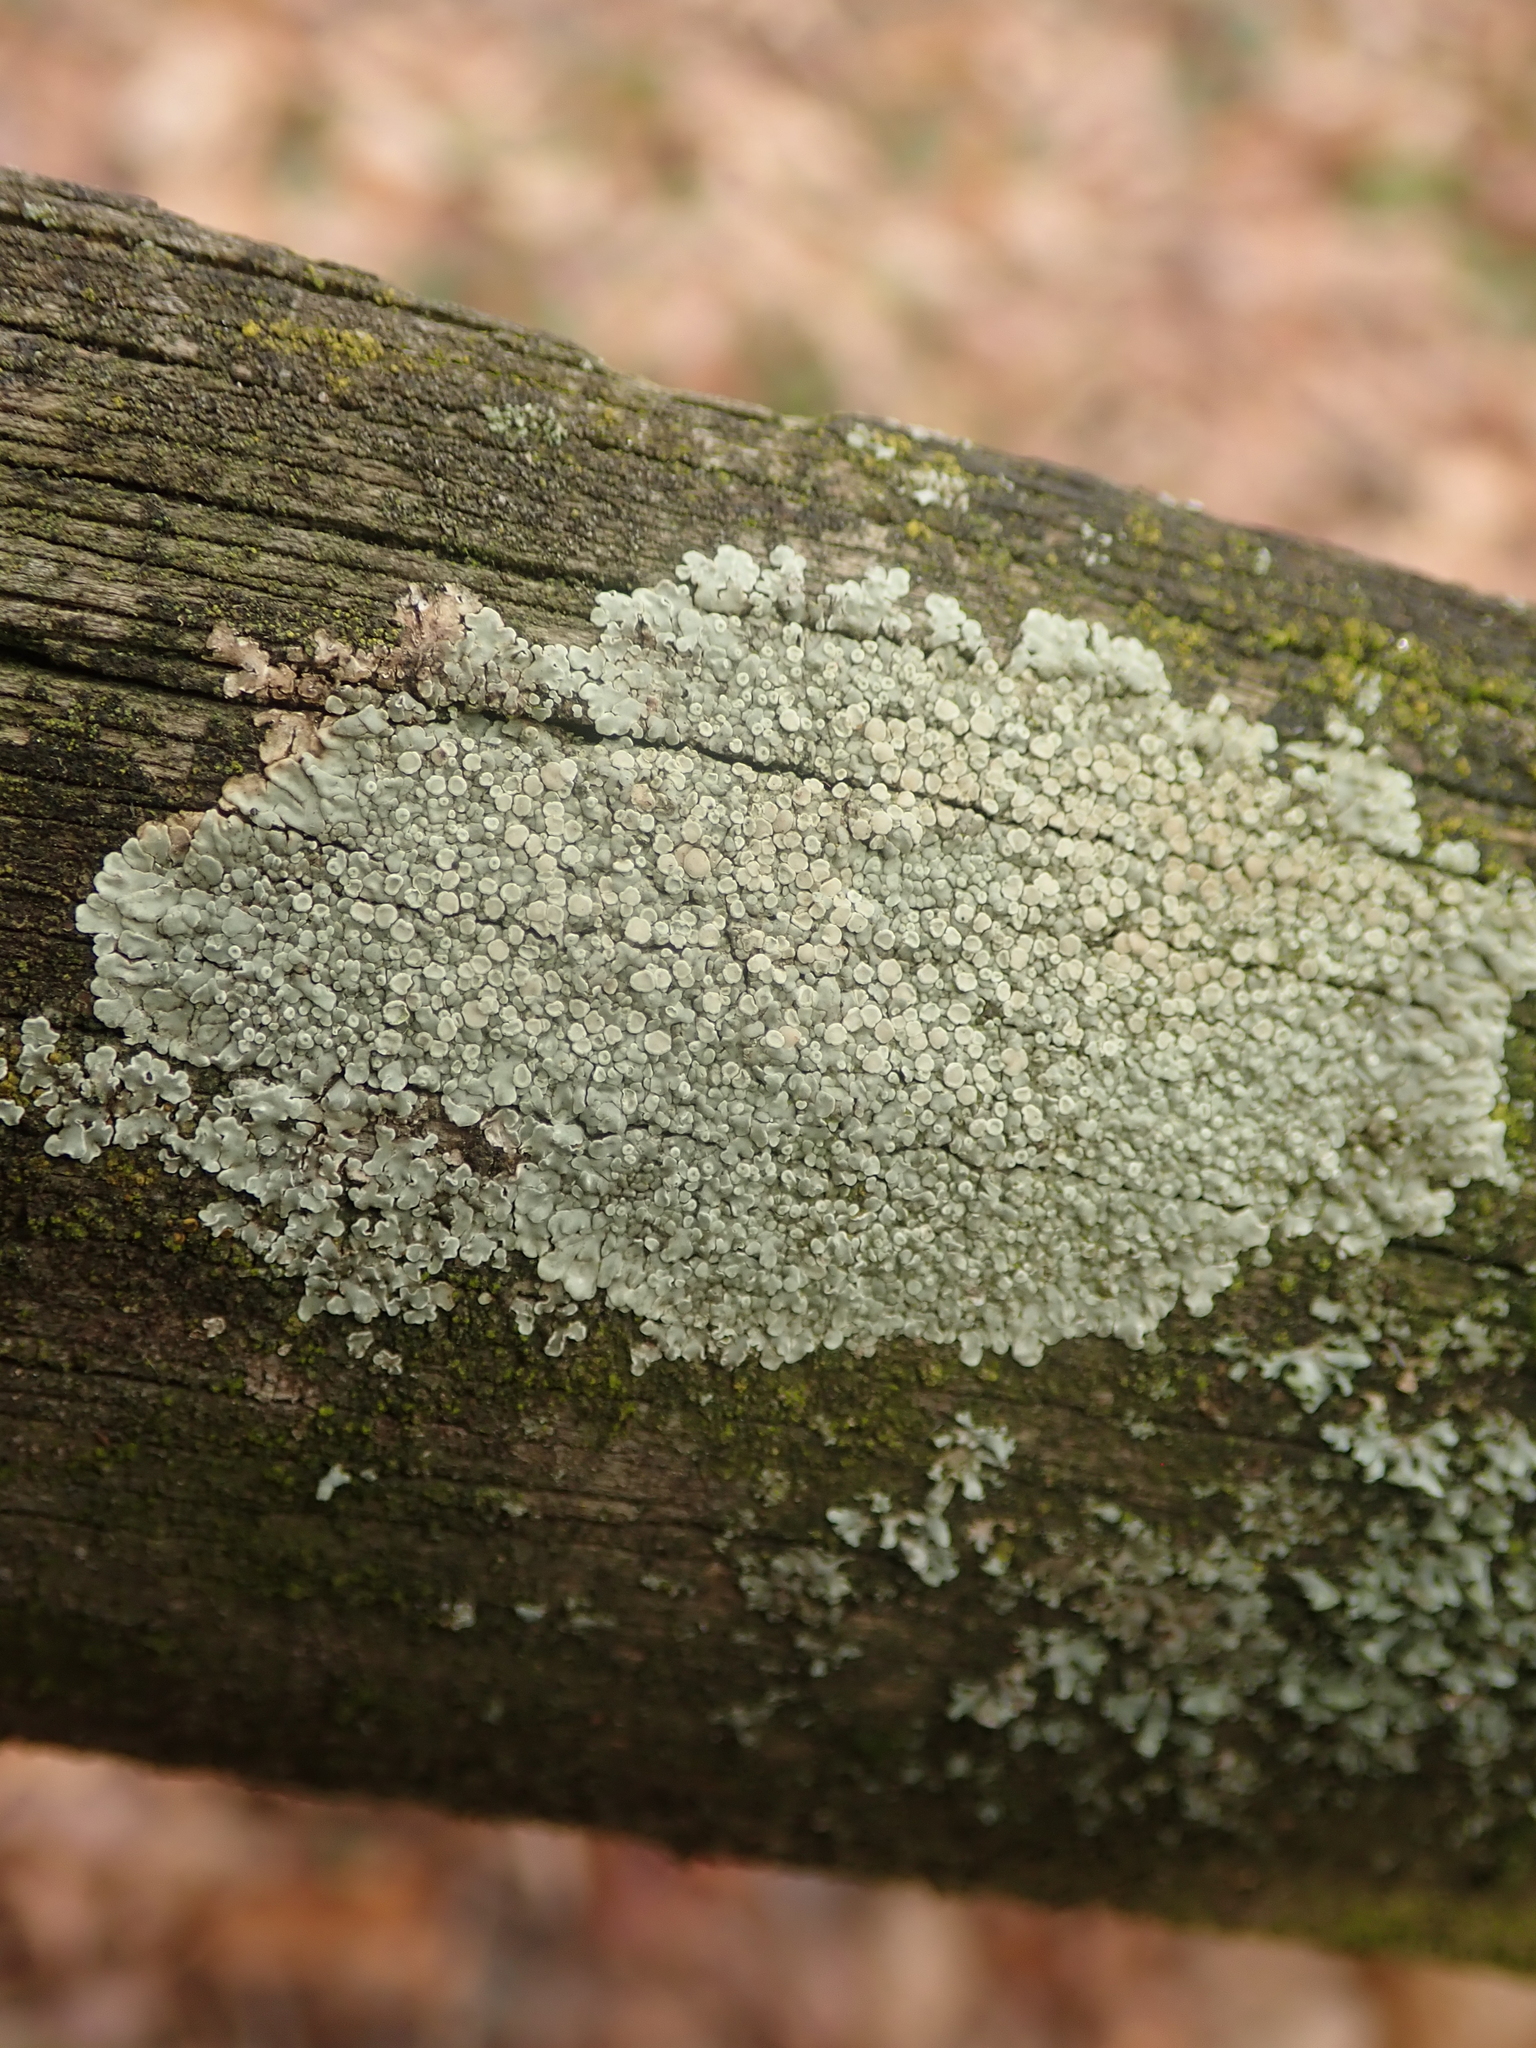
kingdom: Fungi
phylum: Ascomycota
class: Lecanoromycetes
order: Lecanorales
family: Lecanoraceae
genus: Protoparmeliopsis
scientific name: Protoparmeliopsis muralis
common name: Stonewall rim lichen
